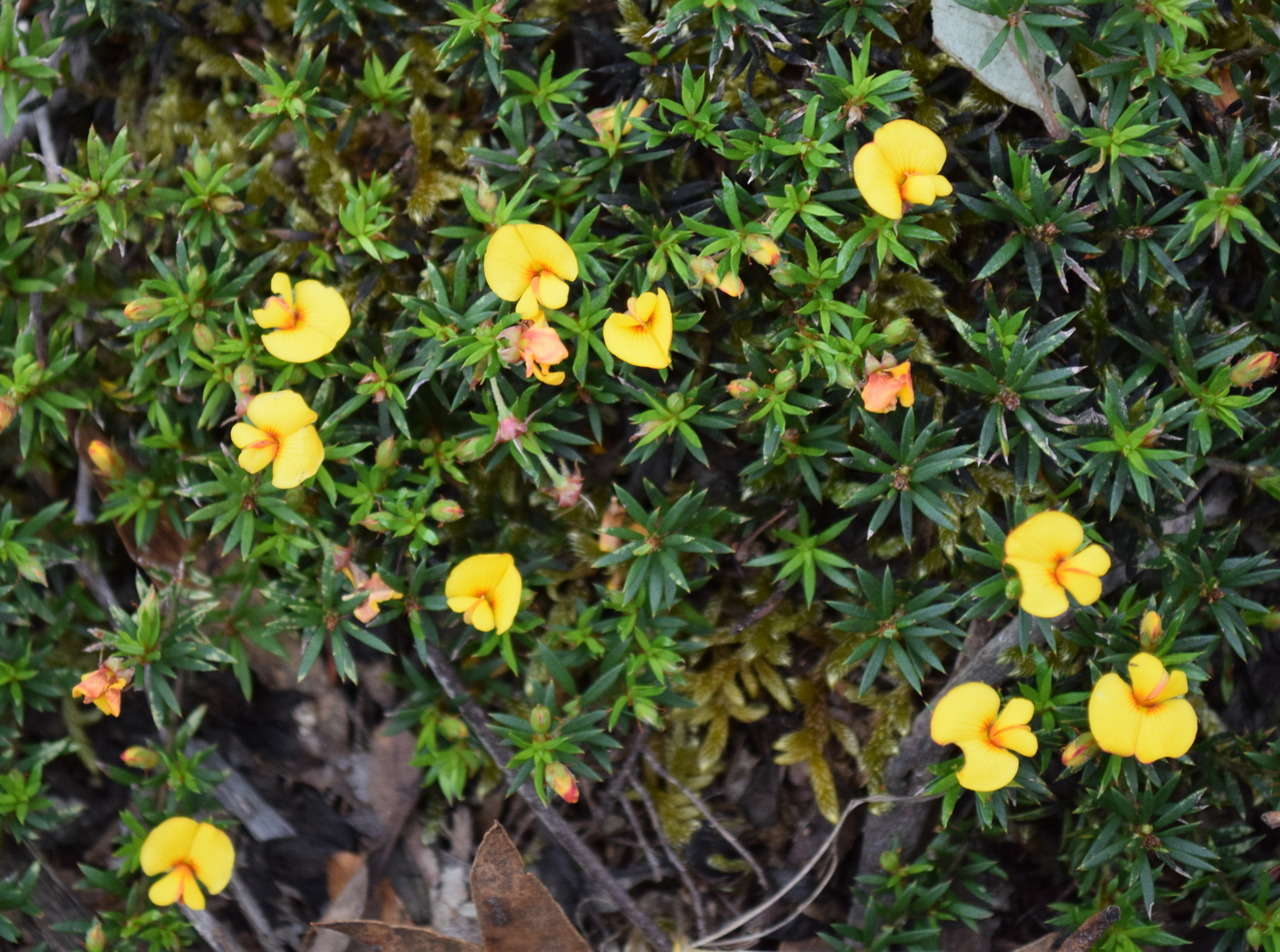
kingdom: Plantae
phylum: Tracheophyta
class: Magnoliopsida
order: Fabales
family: Fabaceae
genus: Pultenaea
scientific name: Pultenaea pedunculata
